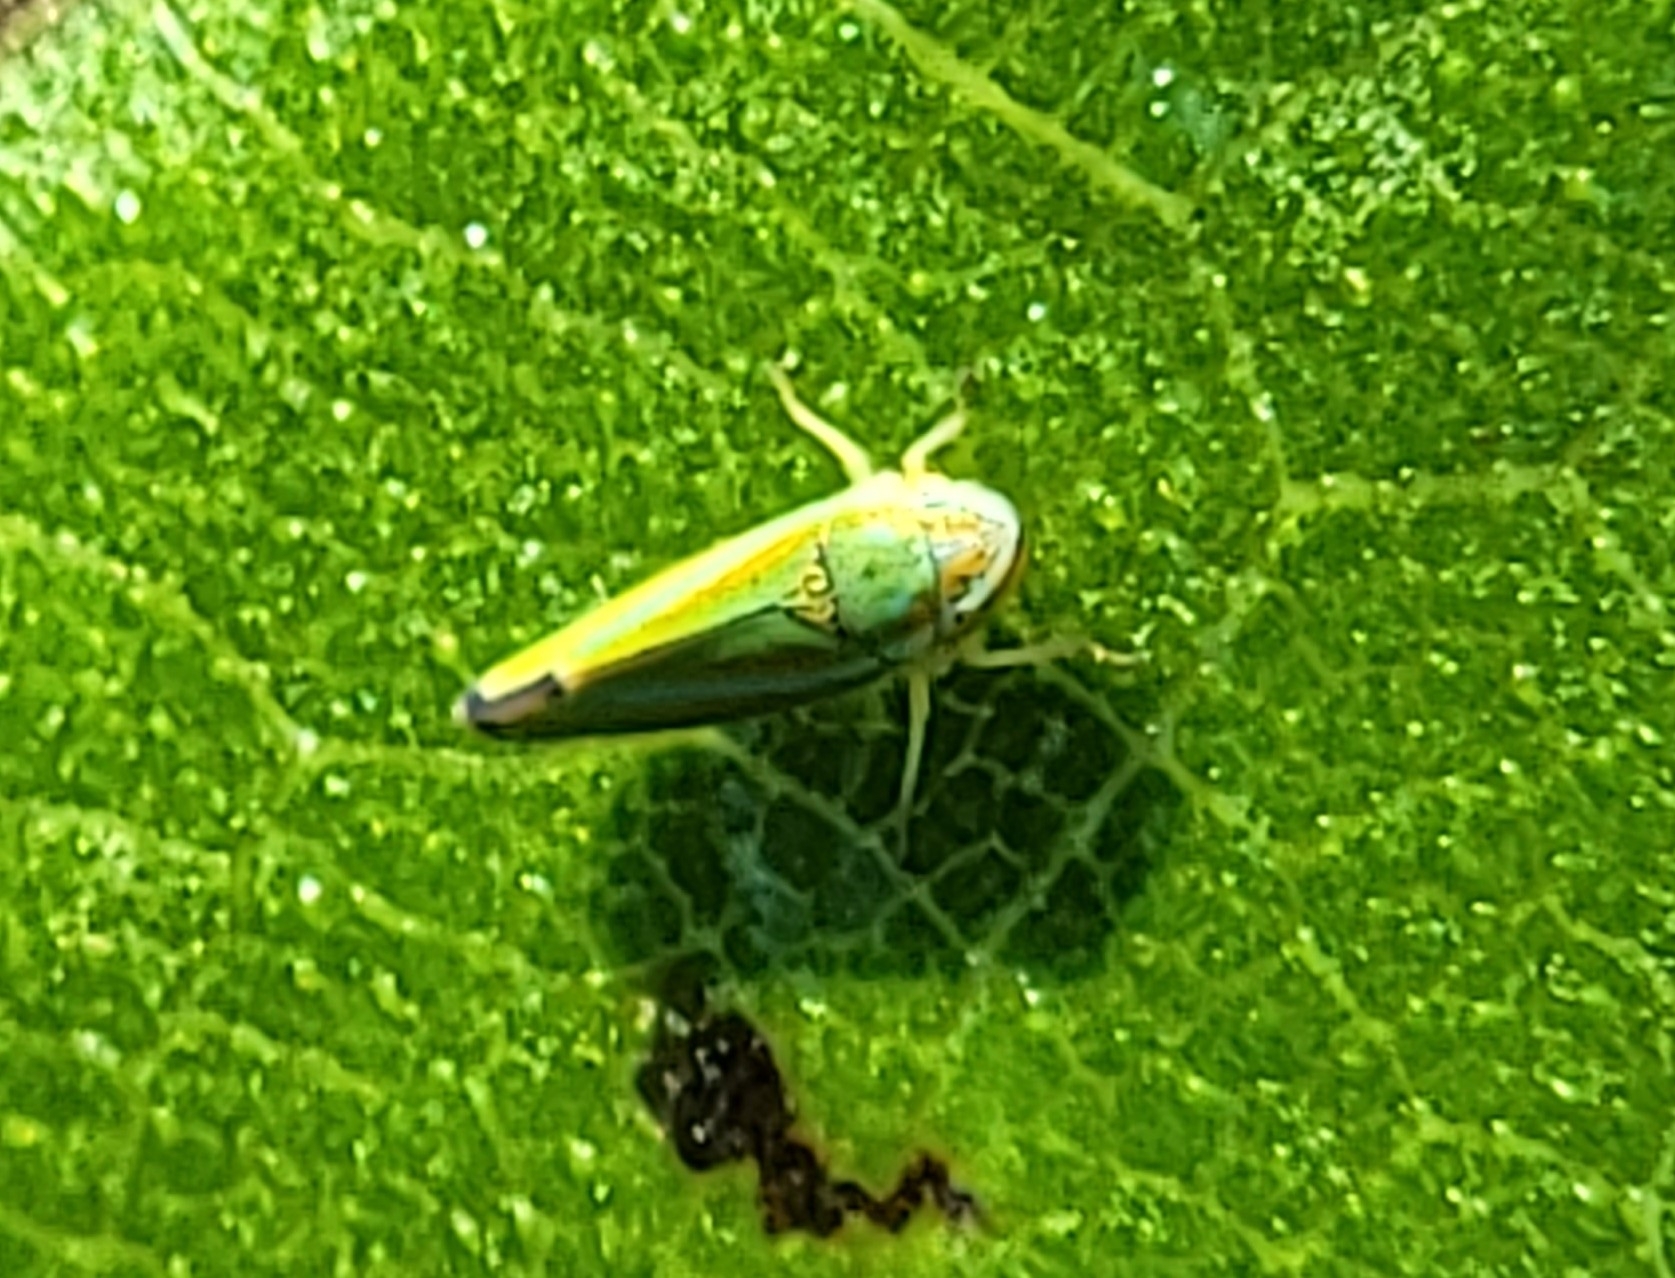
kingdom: Animalia
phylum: Arthropoda
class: Insecta
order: Hemiptera
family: Cicadellidae
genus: Graphocephala
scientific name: Graphocephala versuta
